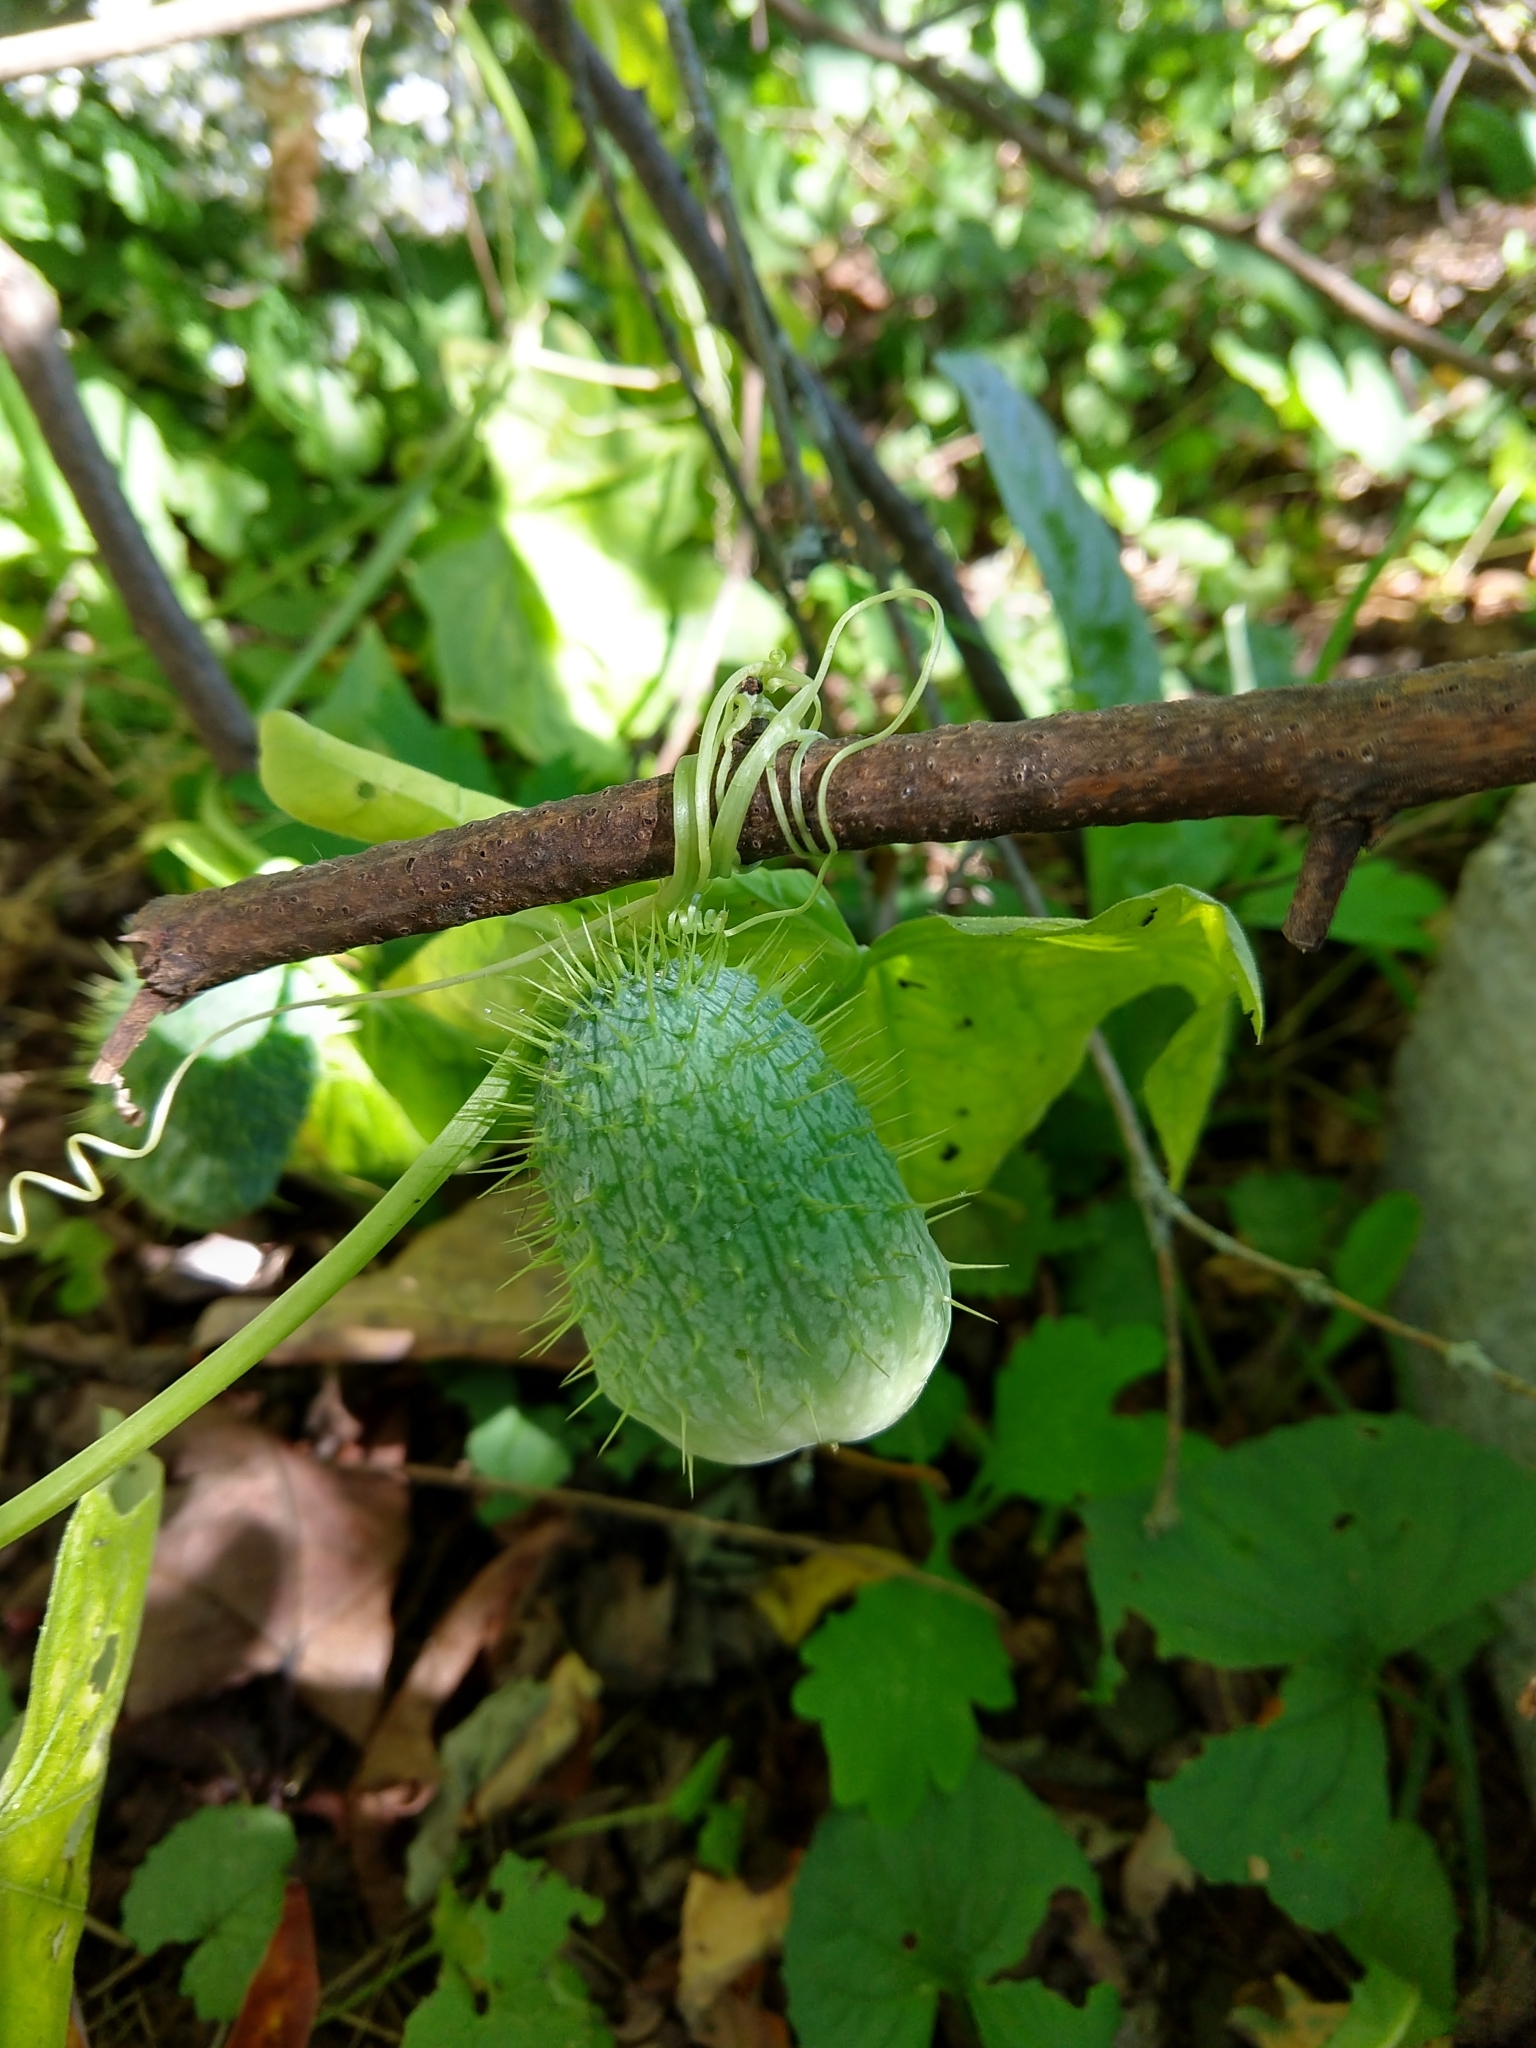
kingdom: Plantae
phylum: Tracheophyta
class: Magnoliopsida
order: Cucurbitales
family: Cucurbitaceae
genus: Echinocystis
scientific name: Echinocystis lobata
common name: Wild cucumber
